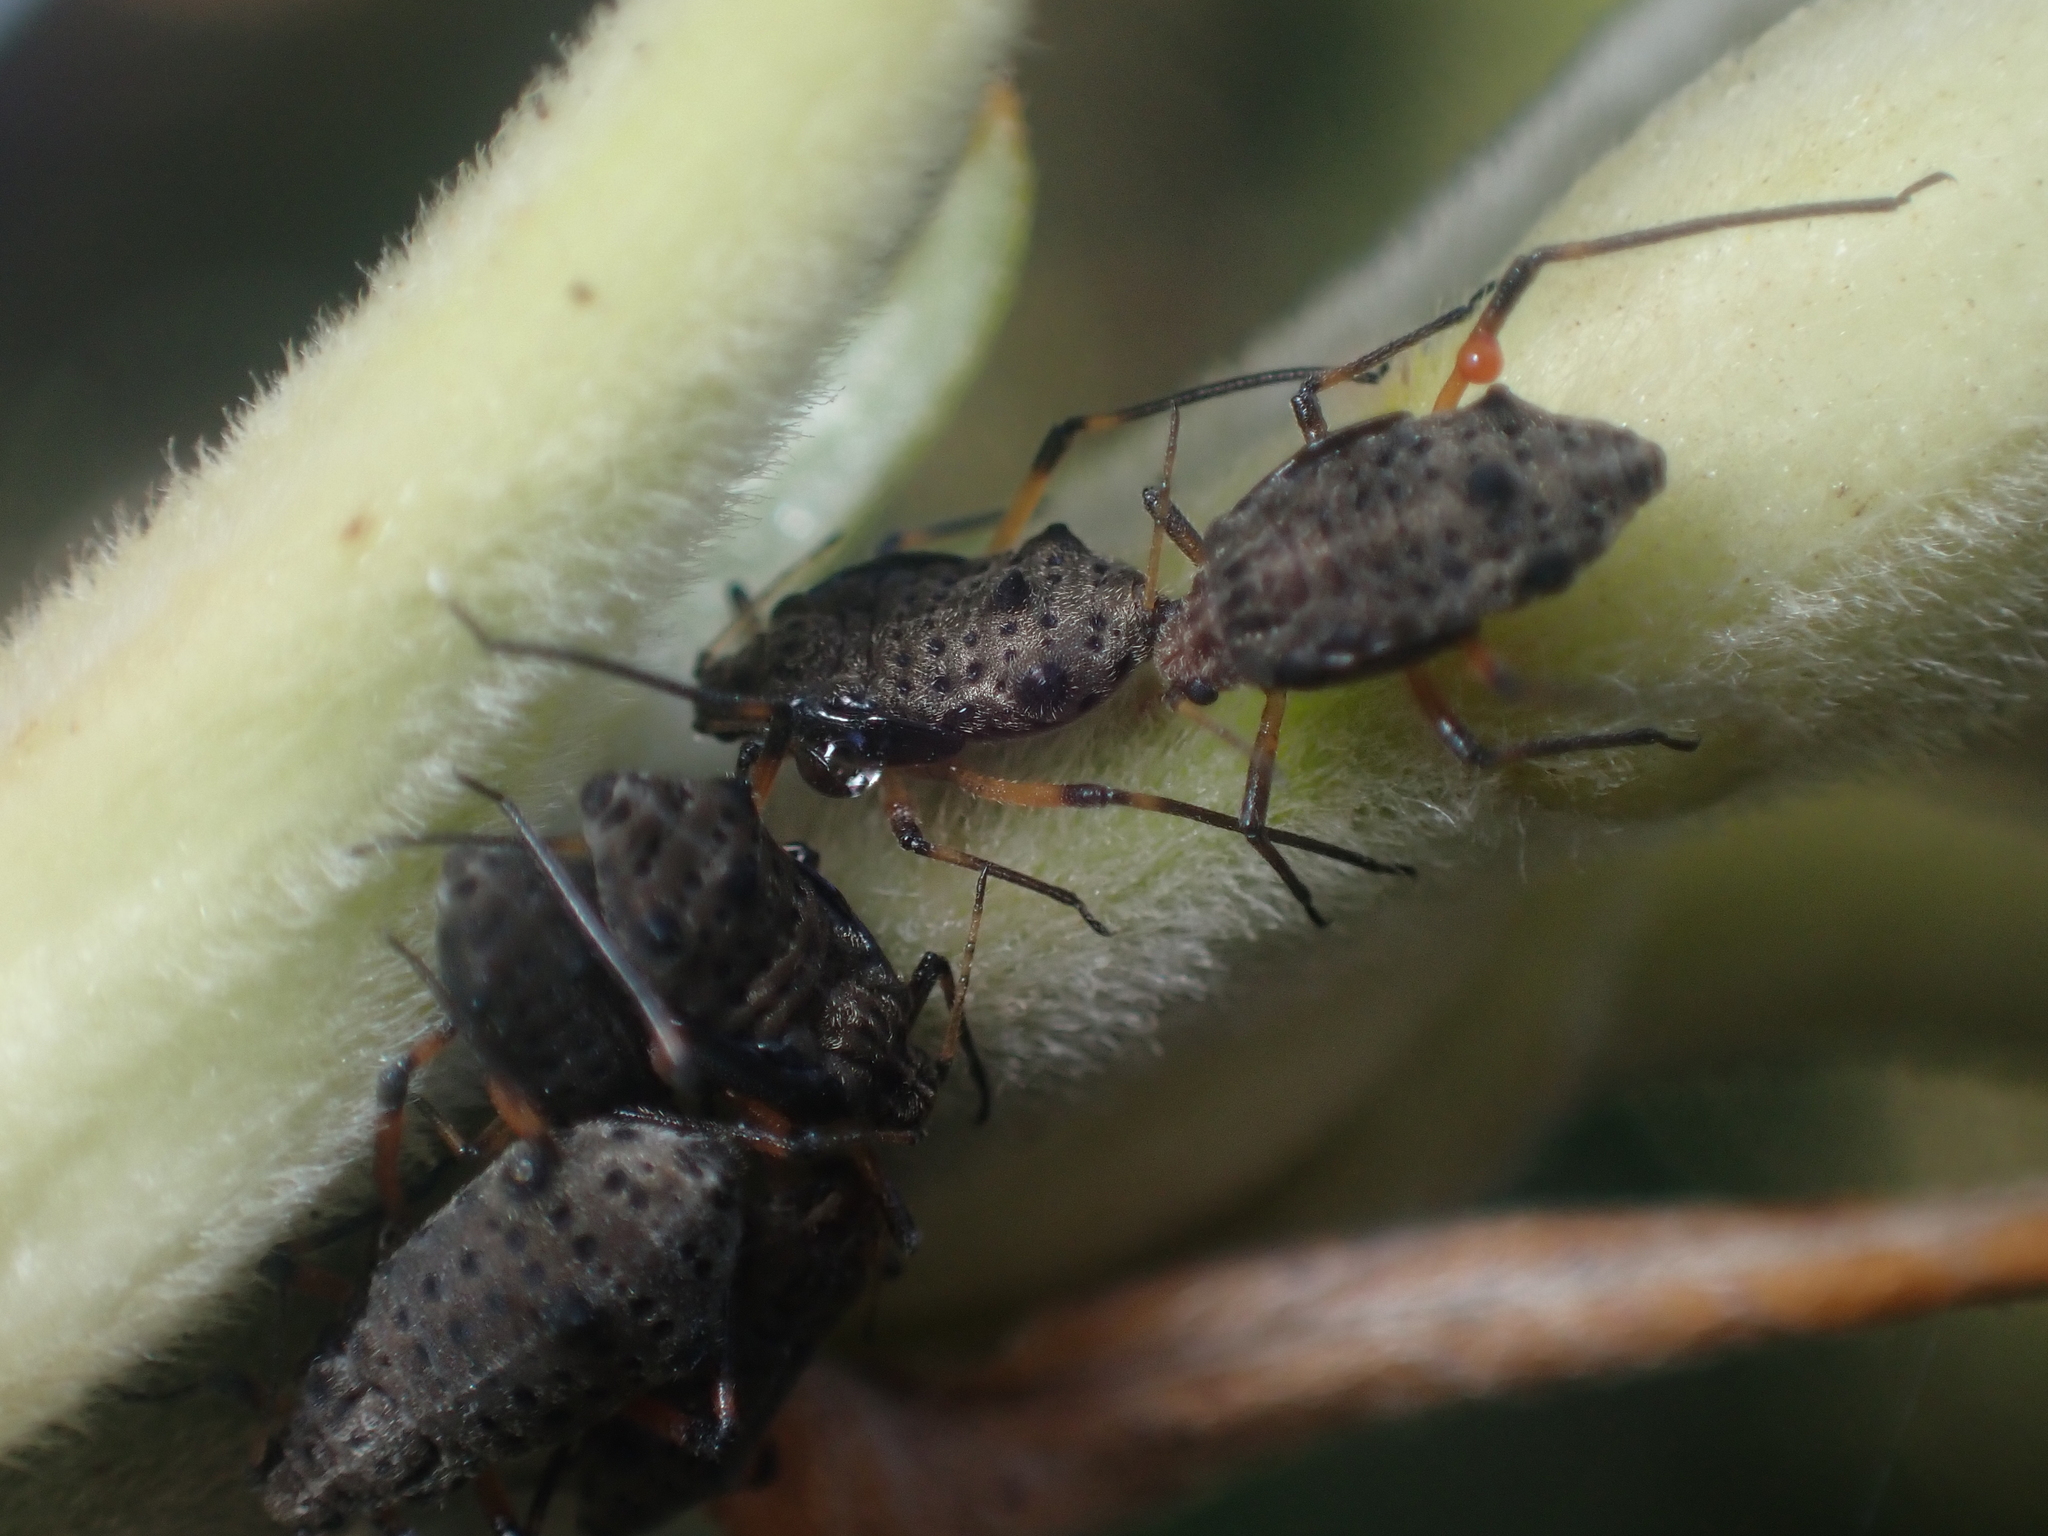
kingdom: Animalia
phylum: Arthropoda
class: Insecta
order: Hemiptera
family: Aphididae
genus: Tuberolachnus
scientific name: Tuberolachnus salignus
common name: Giant willow aphid
